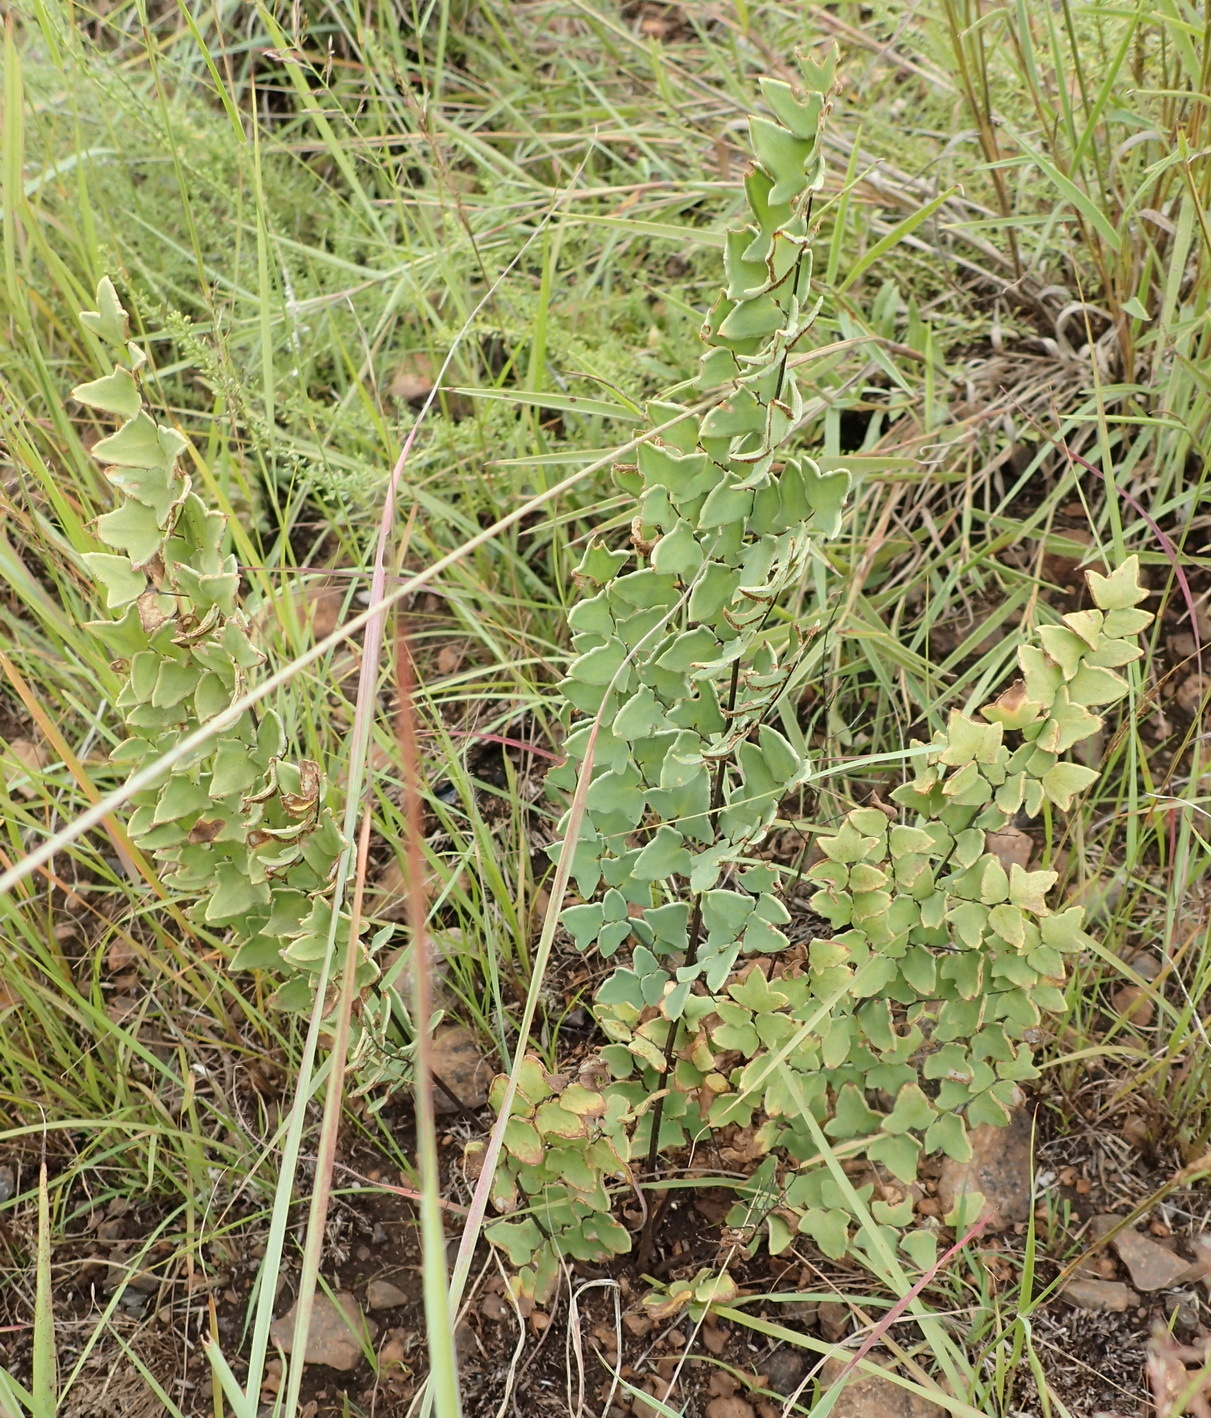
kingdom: Plantae
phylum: Tracheophyta
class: Polypodiopsida
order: Polypodiales
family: Pteridaceae
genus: Pellaea
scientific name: Pellaea calomelanos
